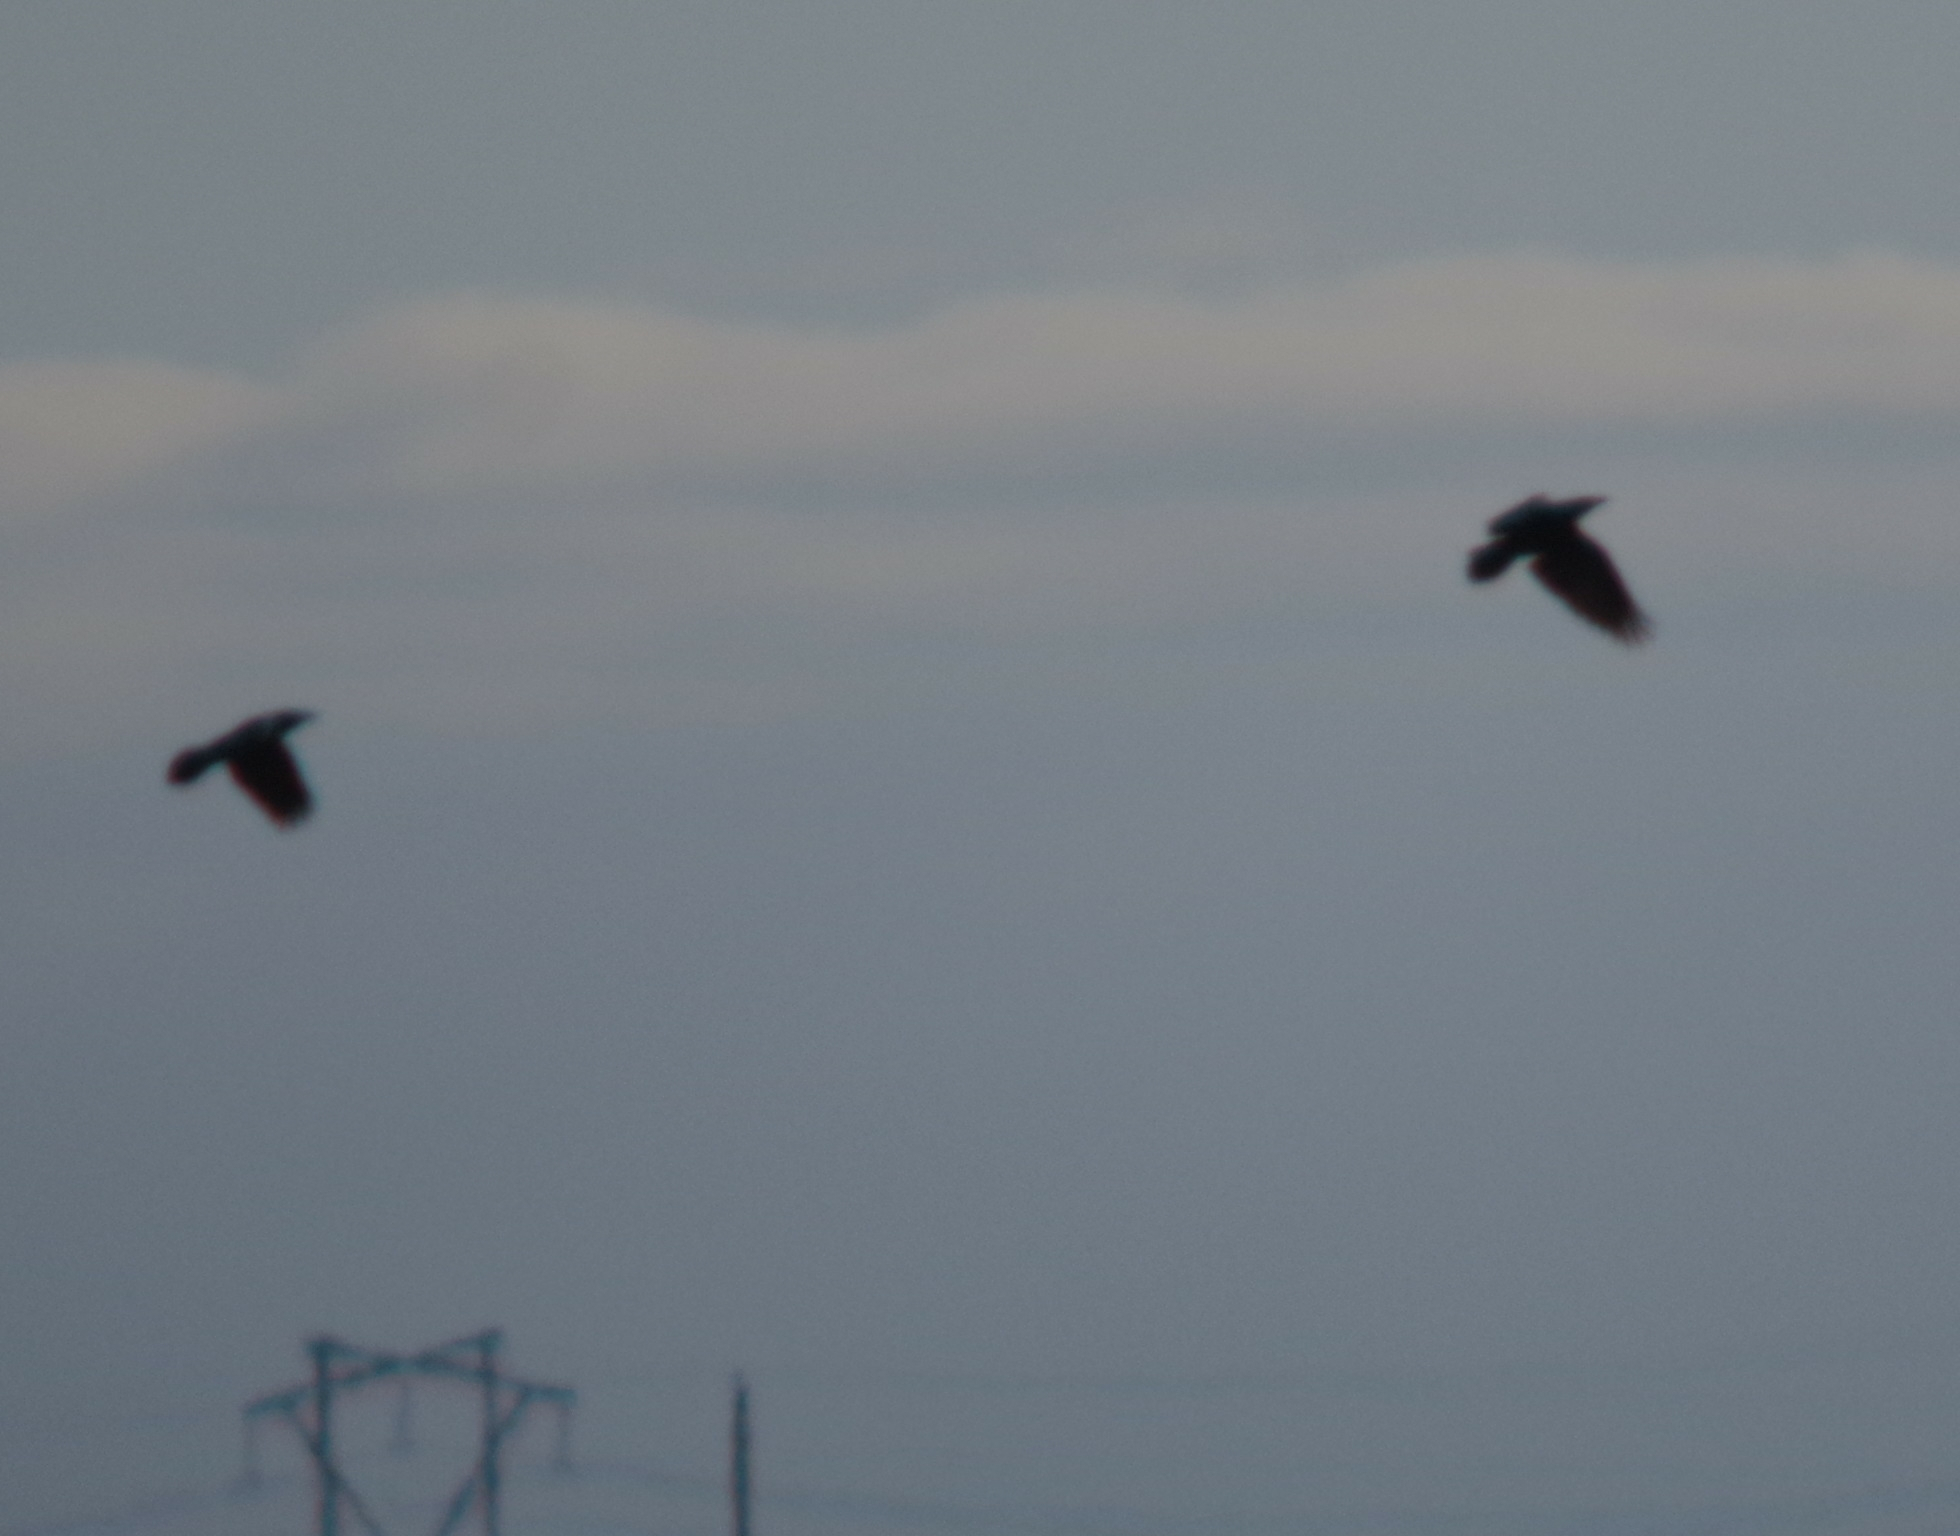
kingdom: Animalia
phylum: Chordata
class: Aves
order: Passeriformes
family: Corvidae
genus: Corvus
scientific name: Corvus brachyrhynchos
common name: American crow
